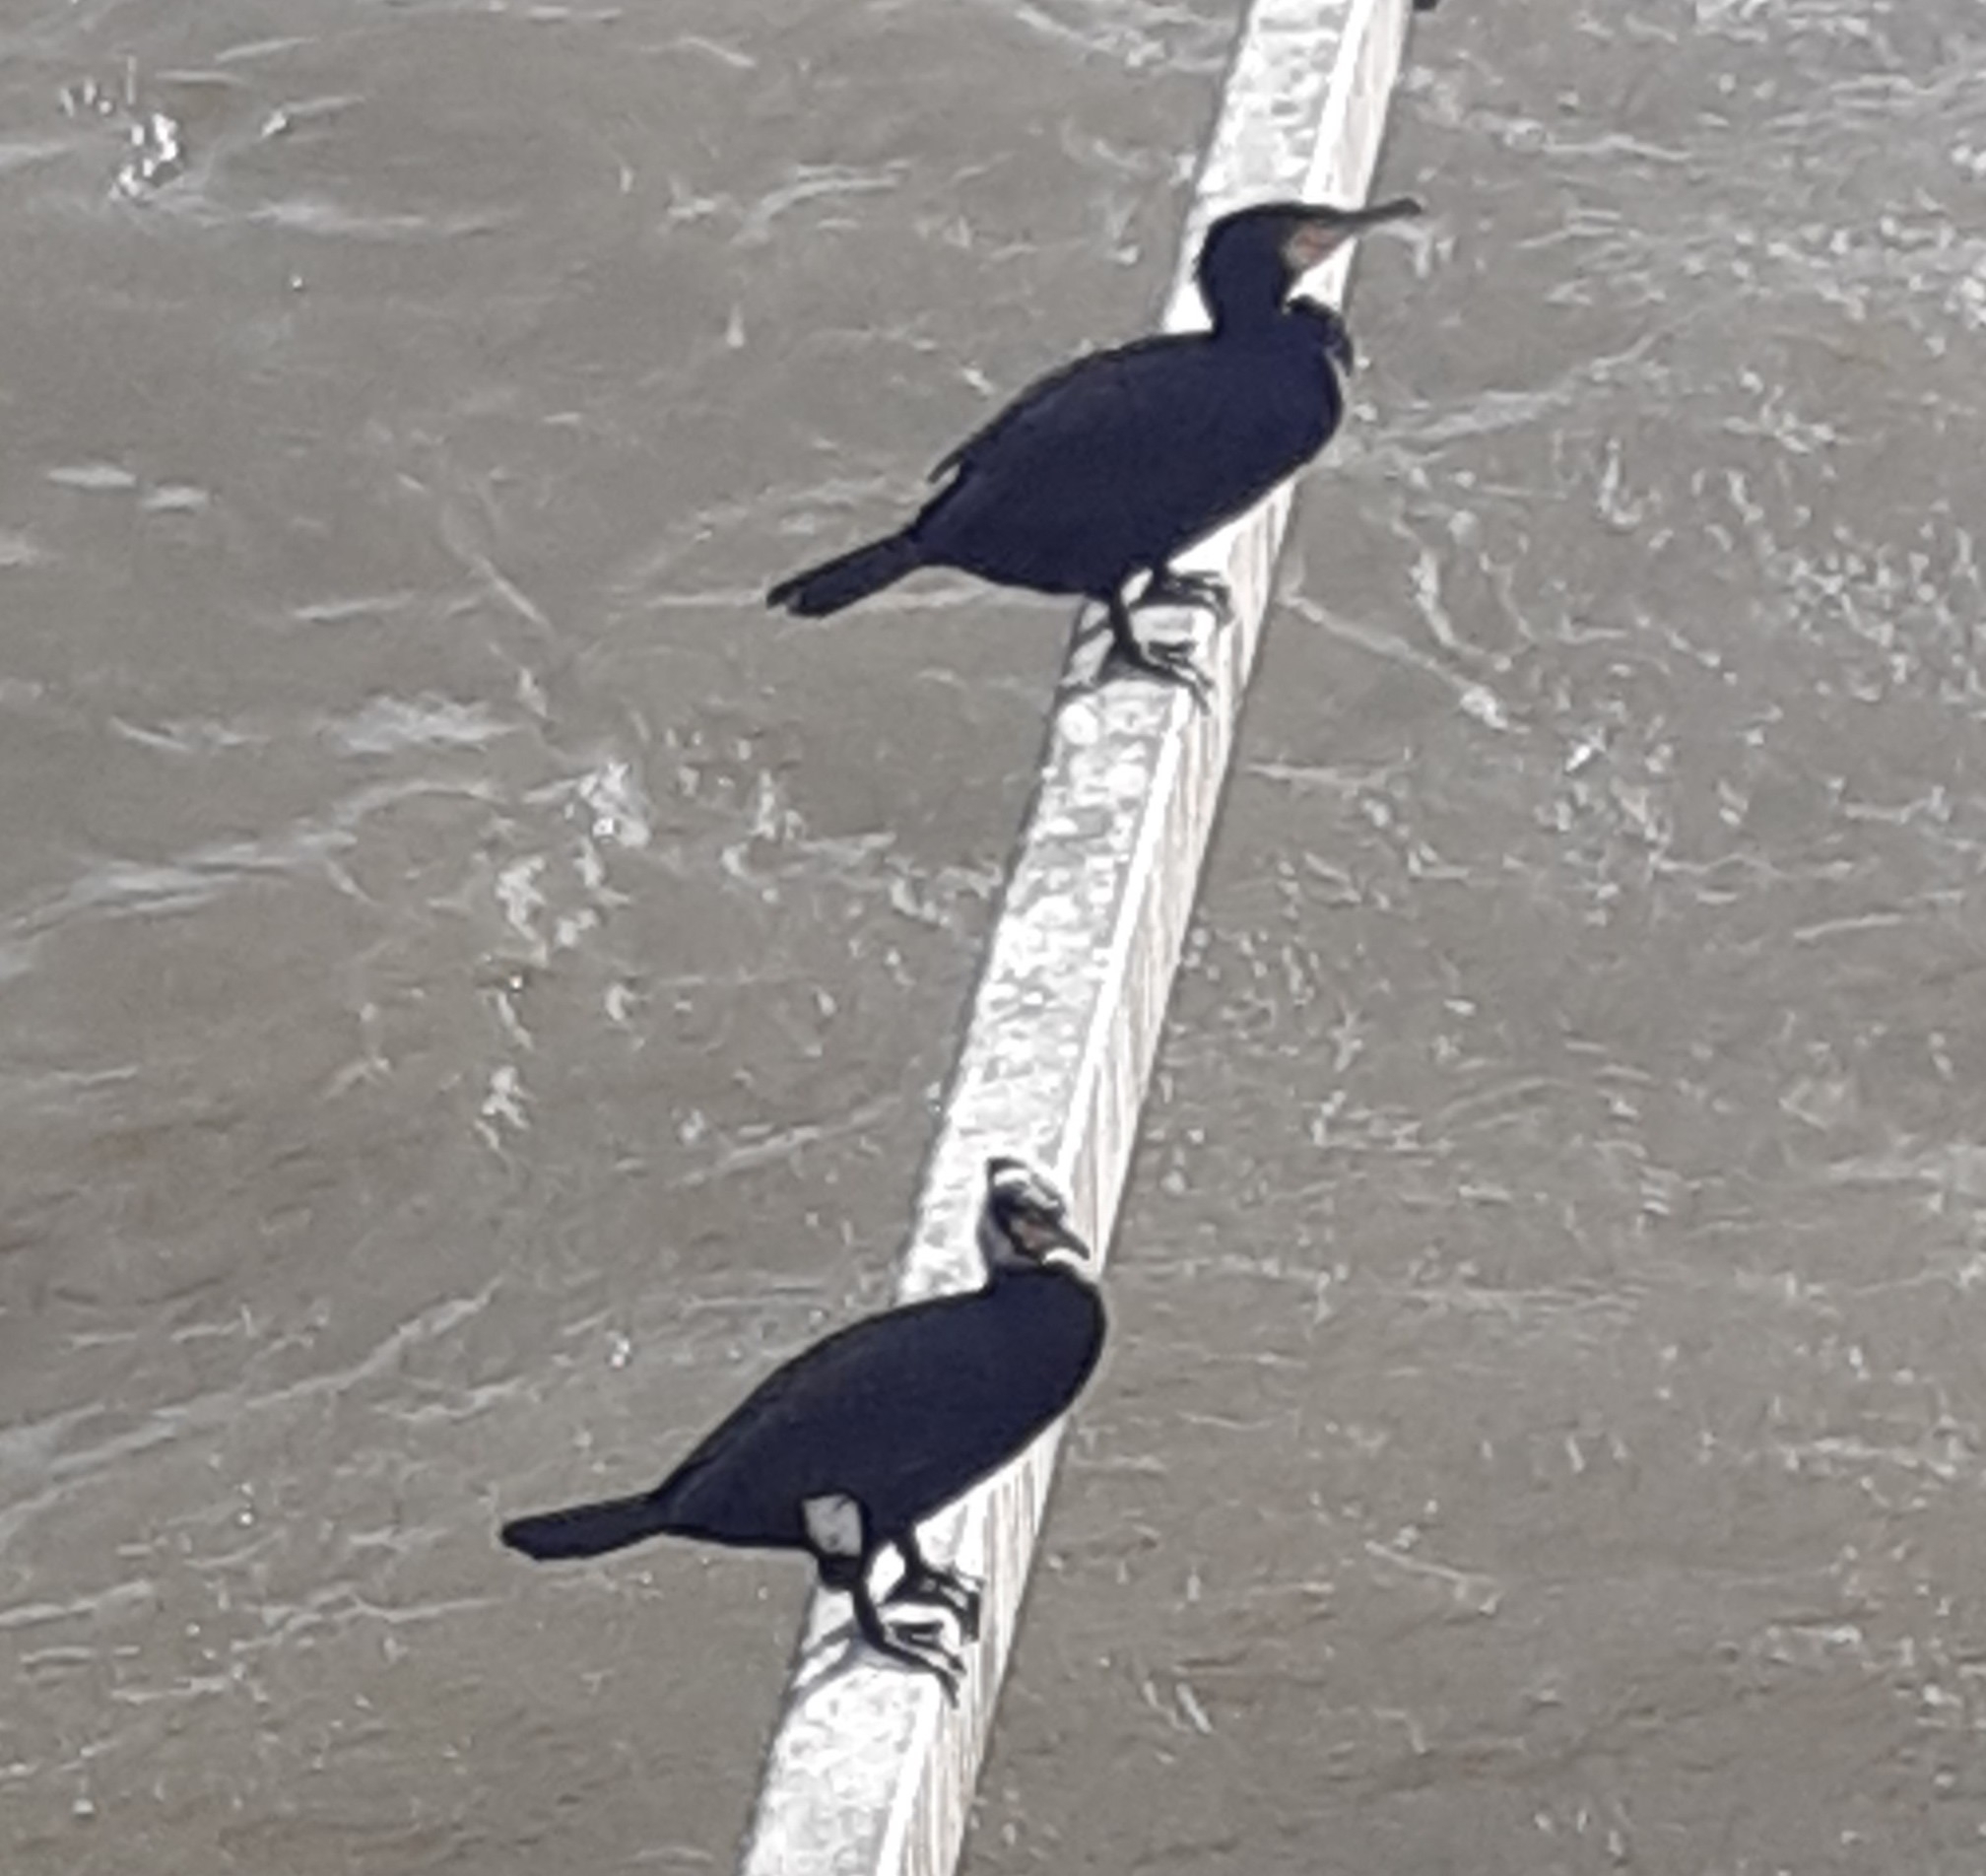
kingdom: Animalia
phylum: Chordata
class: Aves
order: Suliformes
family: Phalacrocoracidae
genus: Phalacrocorax
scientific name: Phalacrocorax carbo
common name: Great cormorant
